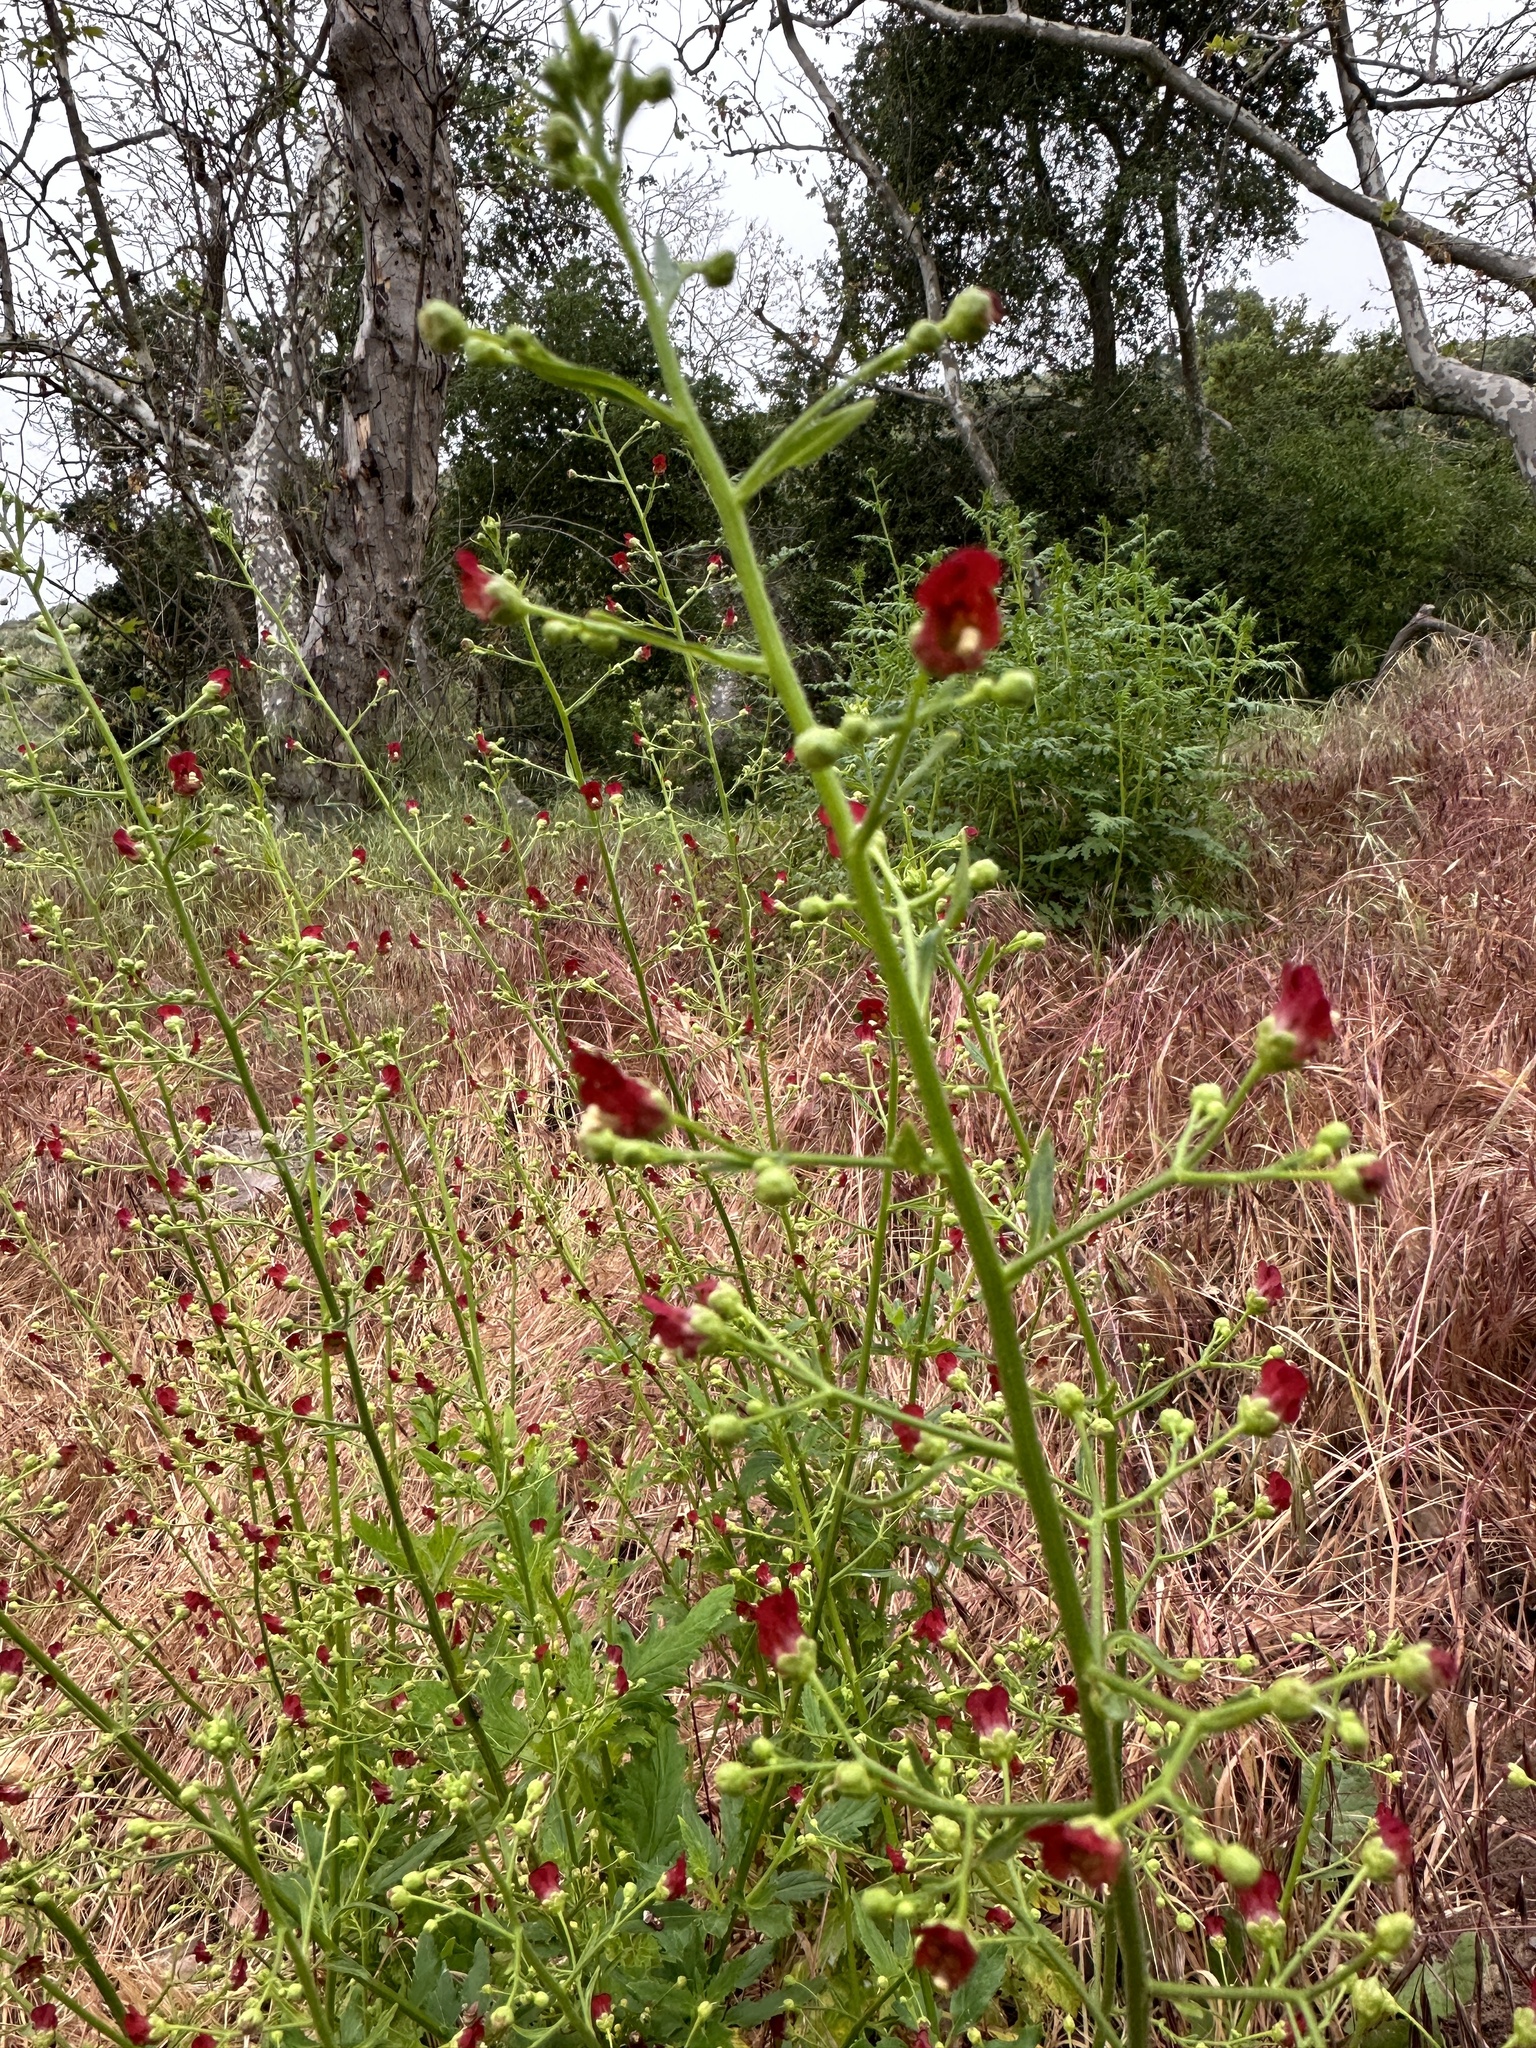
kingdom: Plantae
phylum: Tracheophyta
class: Magnoliopsida
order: Lamiales
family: Scrophulariaceae
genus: Scrophularia
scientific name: Scrophularia californica
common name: California figwort
